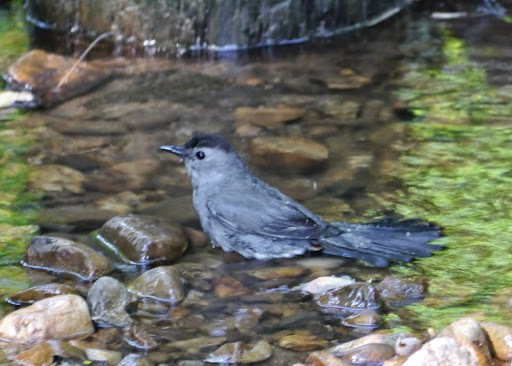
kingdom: Animalia
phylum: Chordata
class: Aves
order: Passeriformes
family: Mimidae
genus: Dumetella
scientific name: Dumetella carolinensis
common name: Gray catbird
